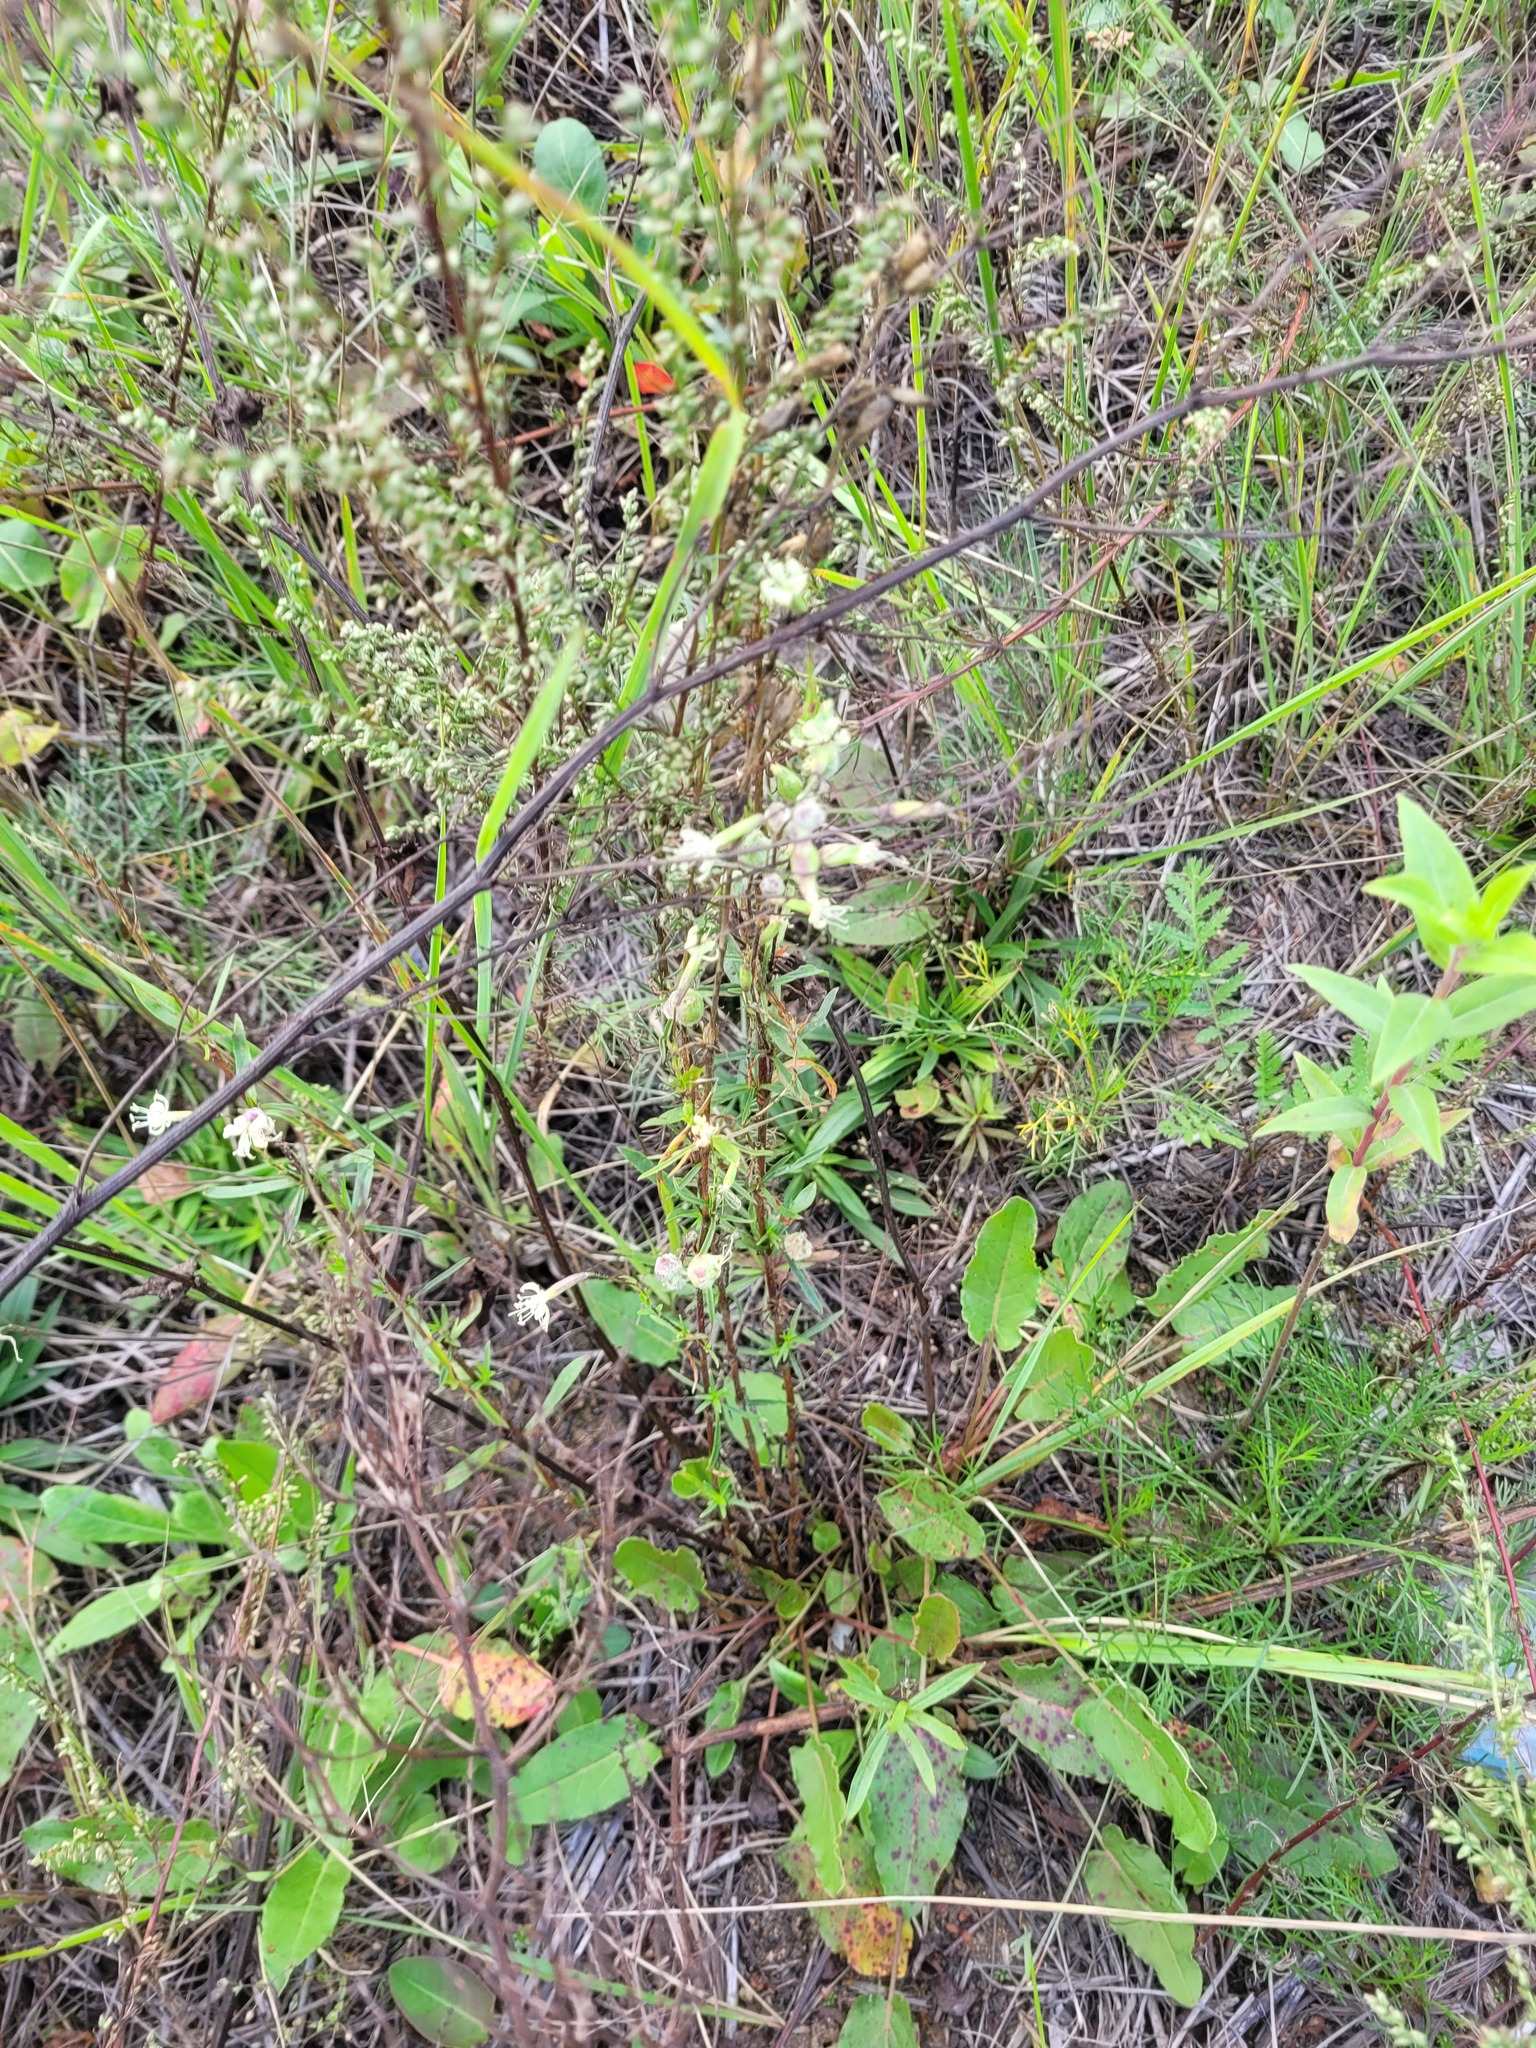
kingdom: Plantae
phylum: Tracheophyta
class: Magnoliopsida
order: Caryophyllales
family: Caryophyllaceae
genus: Silene
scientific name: Silene tatarica
